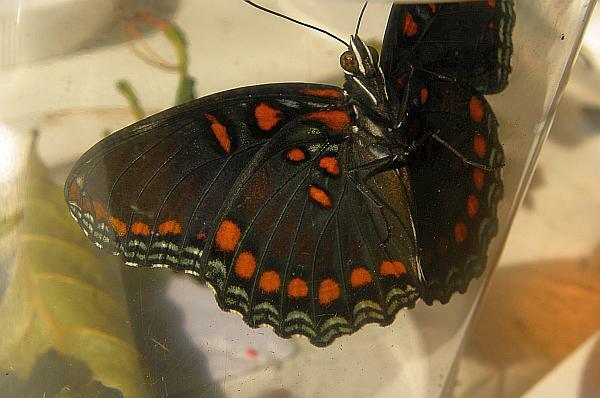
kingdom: Animalia
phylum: Arthropoda
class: Insecta
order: Lepidoptera
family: Nymphalidae
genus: Limenitis
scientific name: Limenitis astyanax
